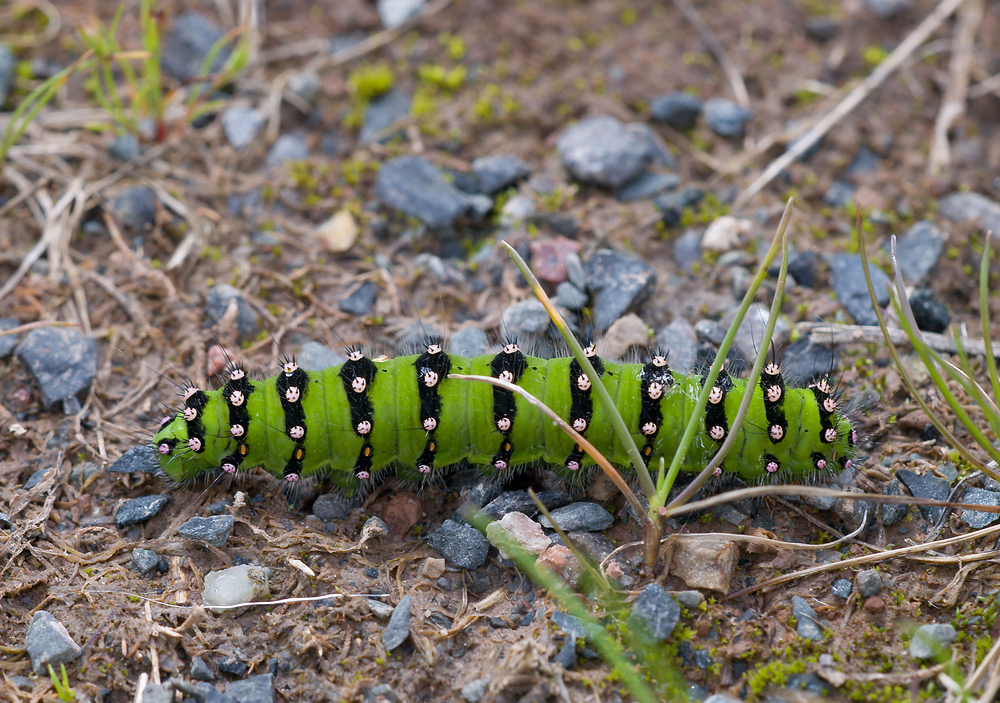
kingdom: Animalia
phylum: Arthropoda
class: Insecta
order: Lepidoptera
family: Saturniidae
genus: Saturnia
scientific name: Saturnia pavonia
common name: Emperor moth
